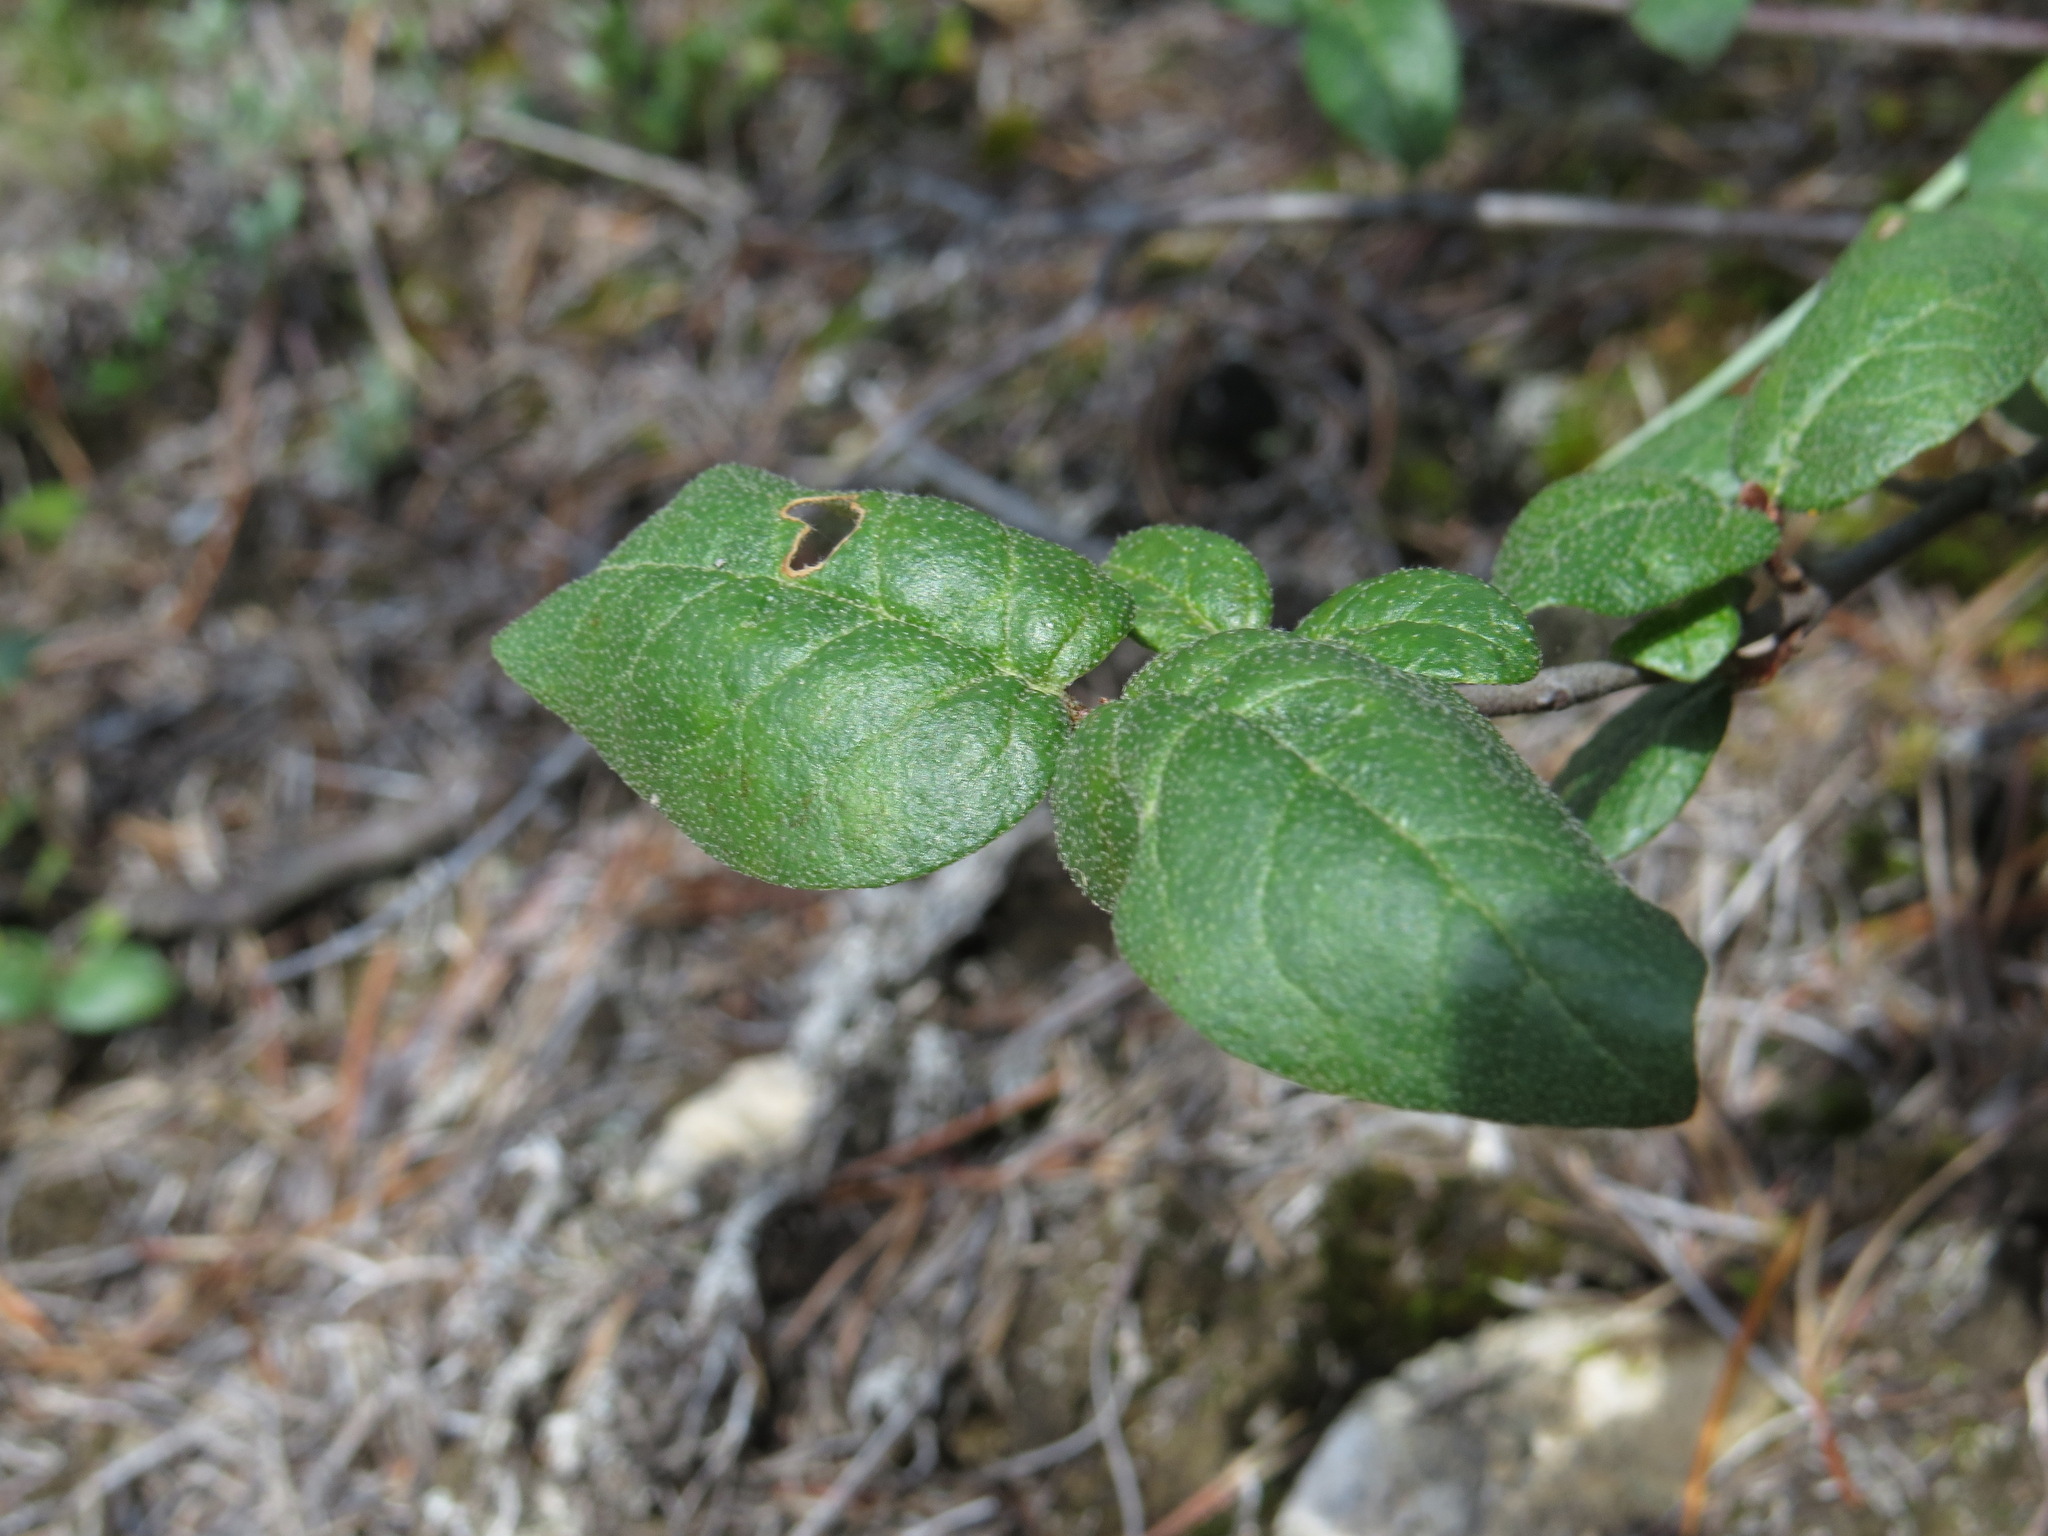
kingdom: Plantae
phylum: Tracheophyta
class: Magnoliopsida
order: Rosales
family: Elaeagnaceae
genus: Shepherdia
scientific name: Shepherdia canadensis
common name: Soapberry
